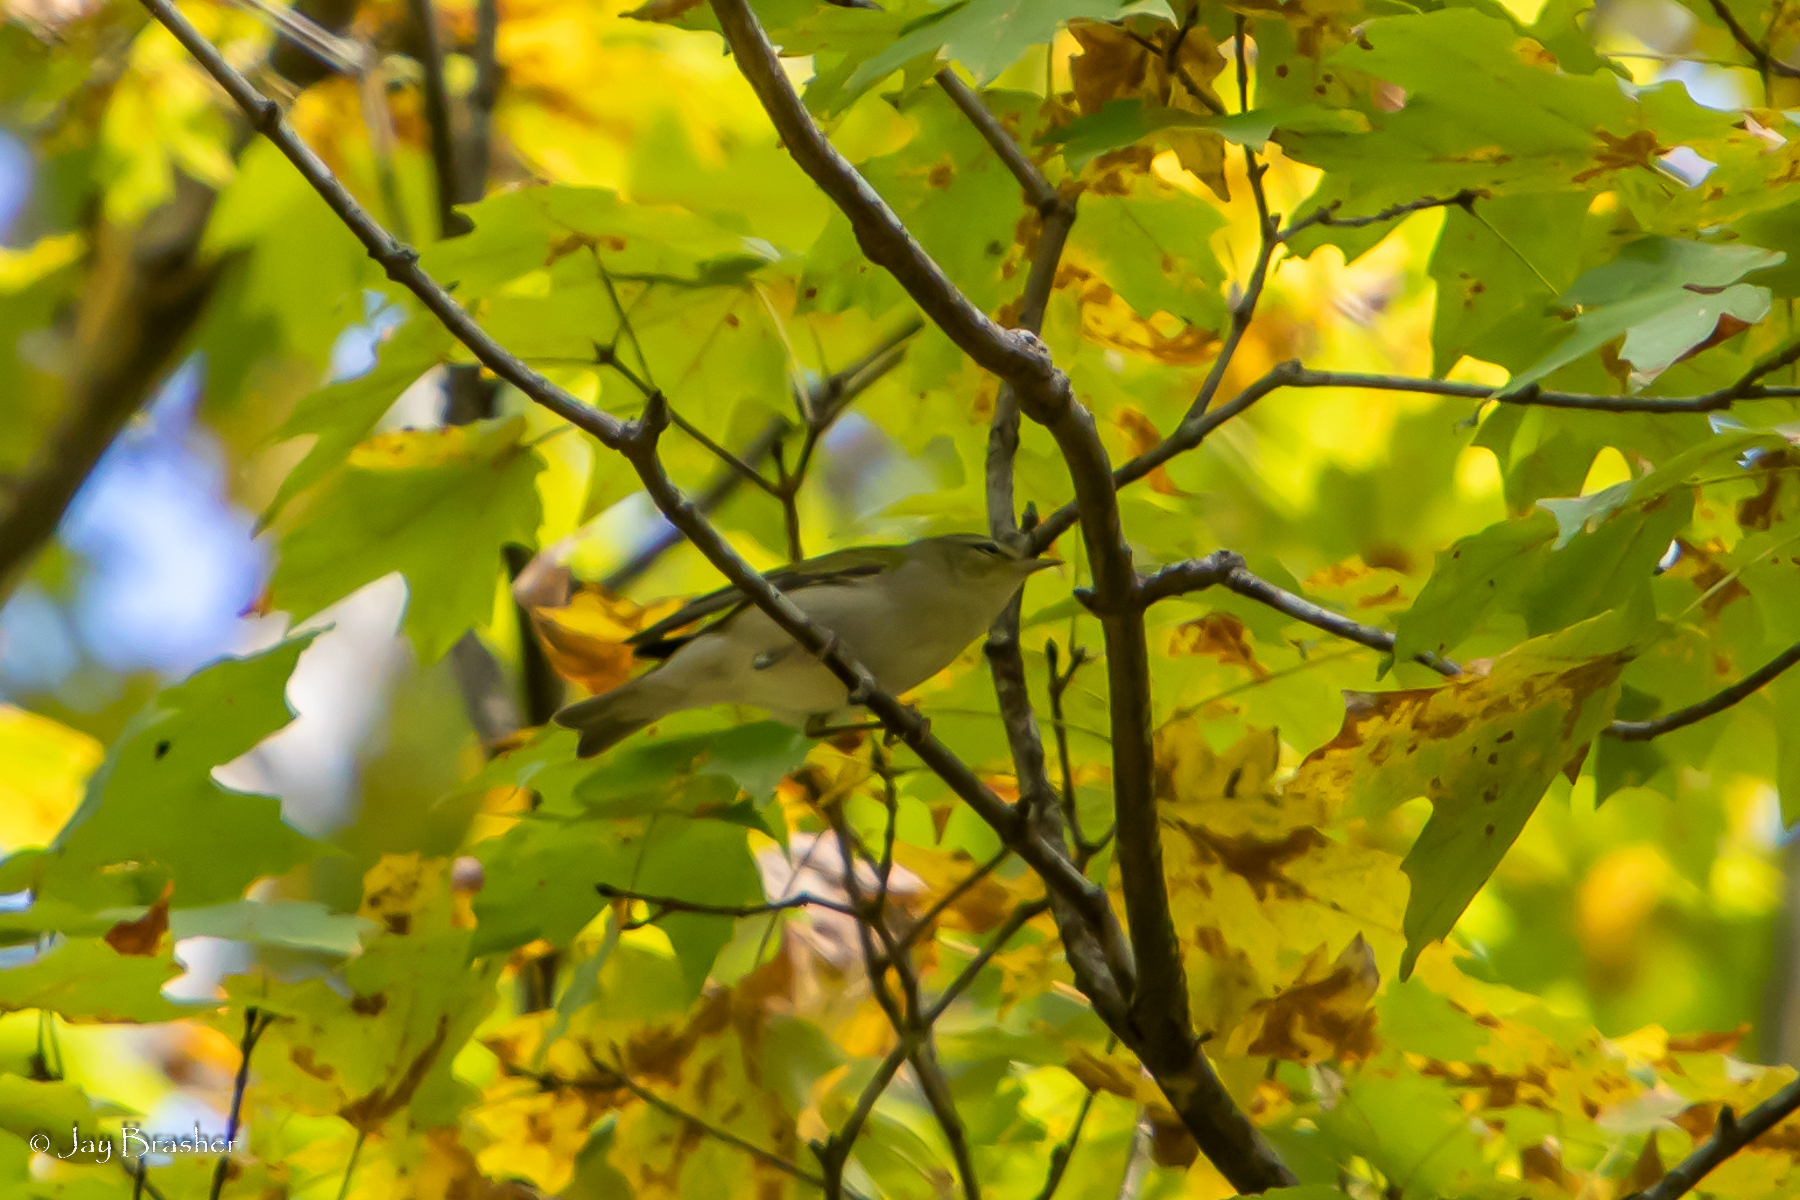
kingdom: Animalia
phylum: Chordata
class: Aves
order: Passeriformes
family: Parulidae
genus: Leiothlypis
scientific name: Leiothlypis peregrina
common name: Tennessee warbler
